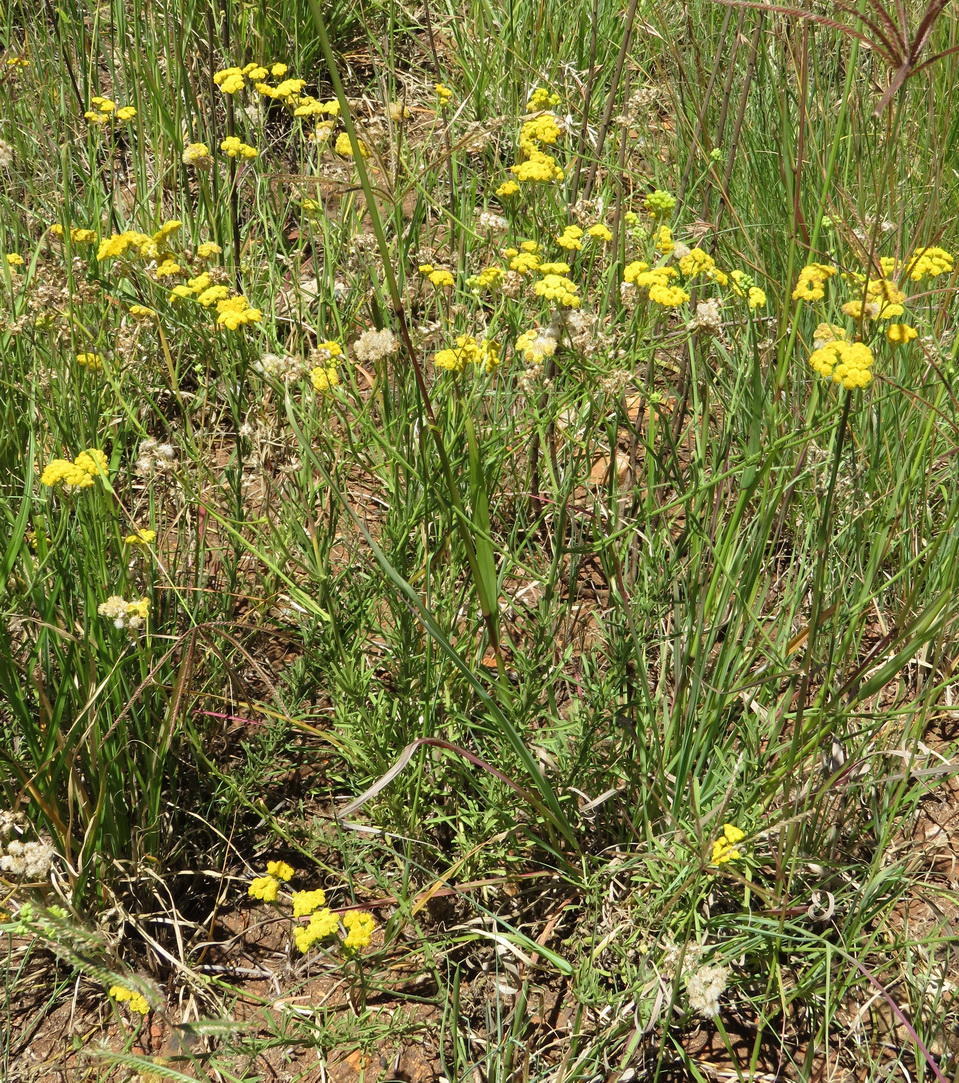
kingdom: Plantae
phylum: Tracheophyta
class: Magnoliopsida
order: Asterales
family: Asteraceae
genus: Nidorella
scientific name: Nidorella hottentotica
